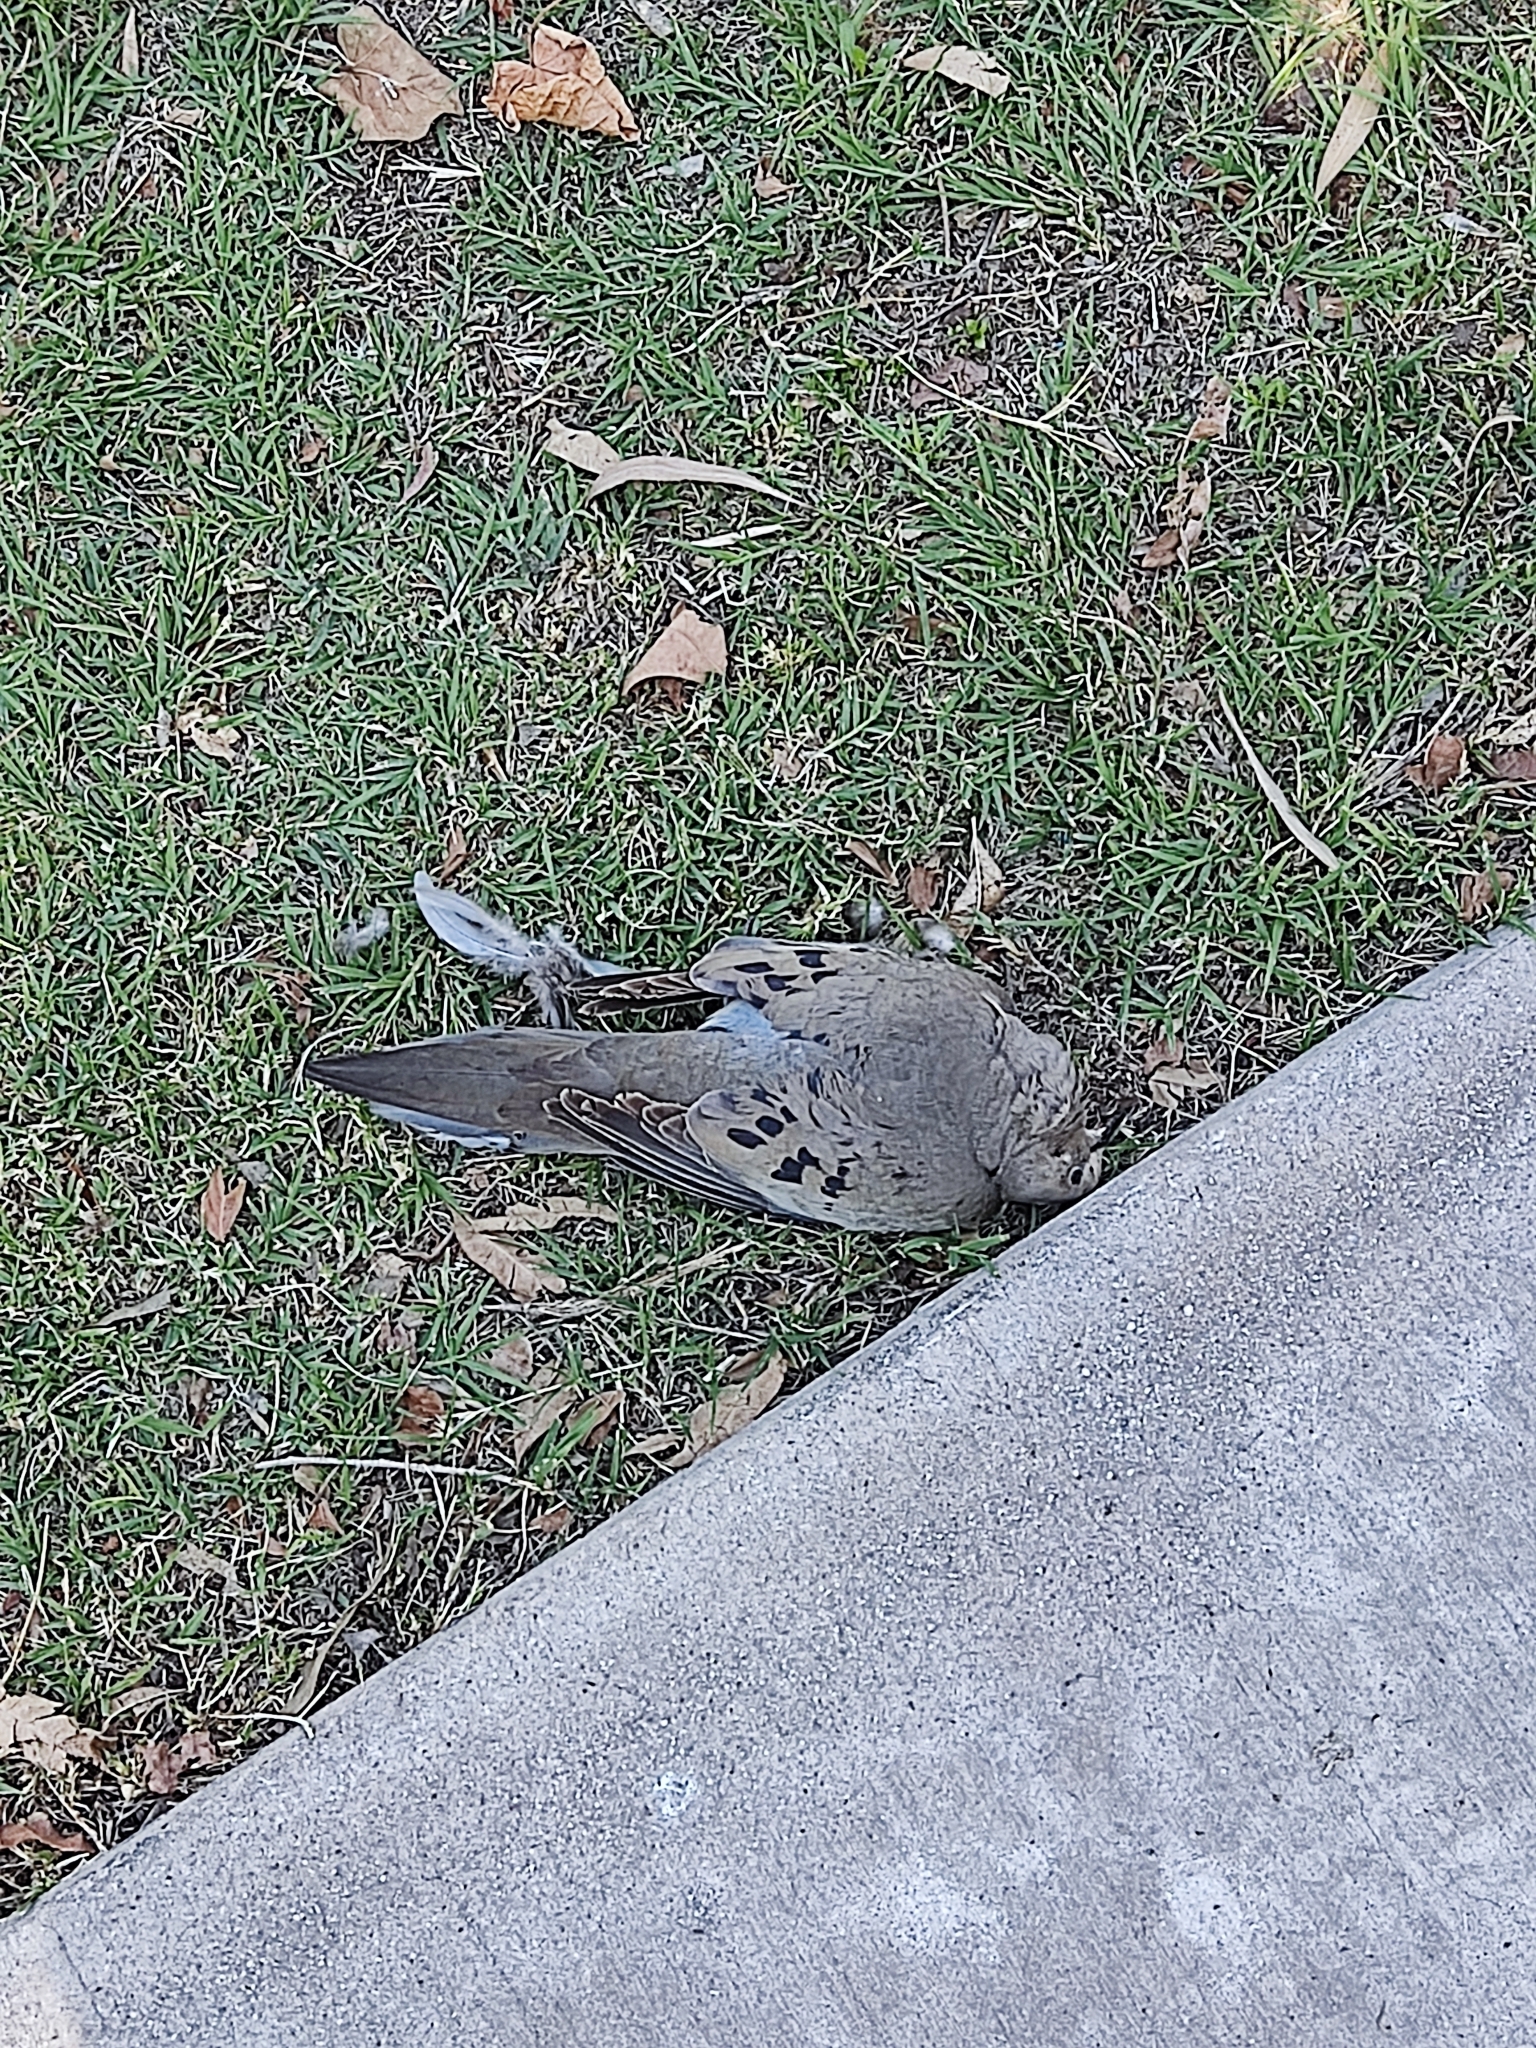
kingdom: Animalia
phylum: Chordata
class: Aves
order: Columbiformes
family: Columbidae
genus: Zenaida
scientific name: Zenaida macroura
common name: Mourning dove
